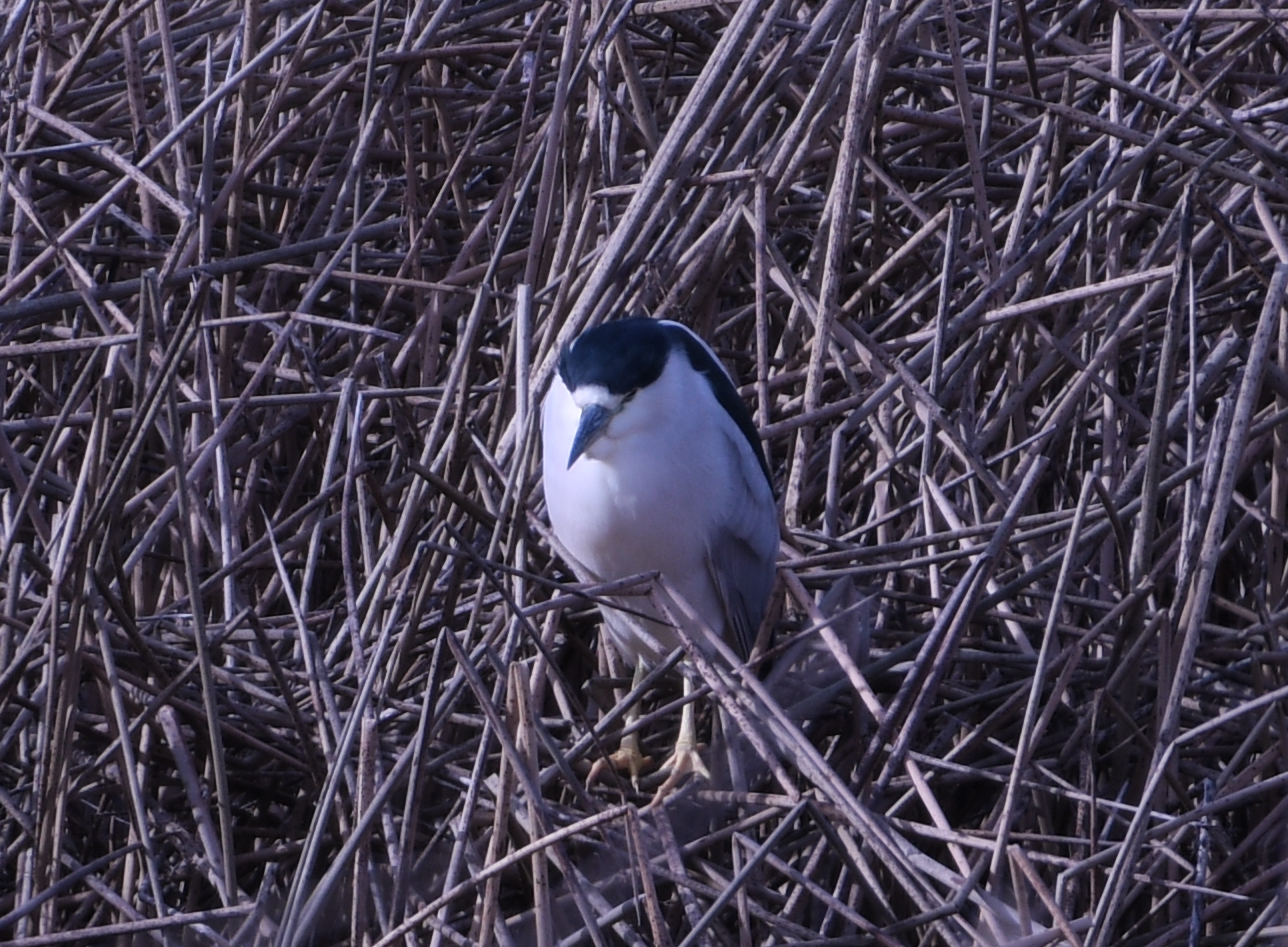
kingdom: Animalia
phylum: Chordata
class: Aves
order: Pelecaniformes
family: Ardeidae
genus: Nycticorax
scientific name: Nycticorax nycticorax
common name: Black-crowned night heron
